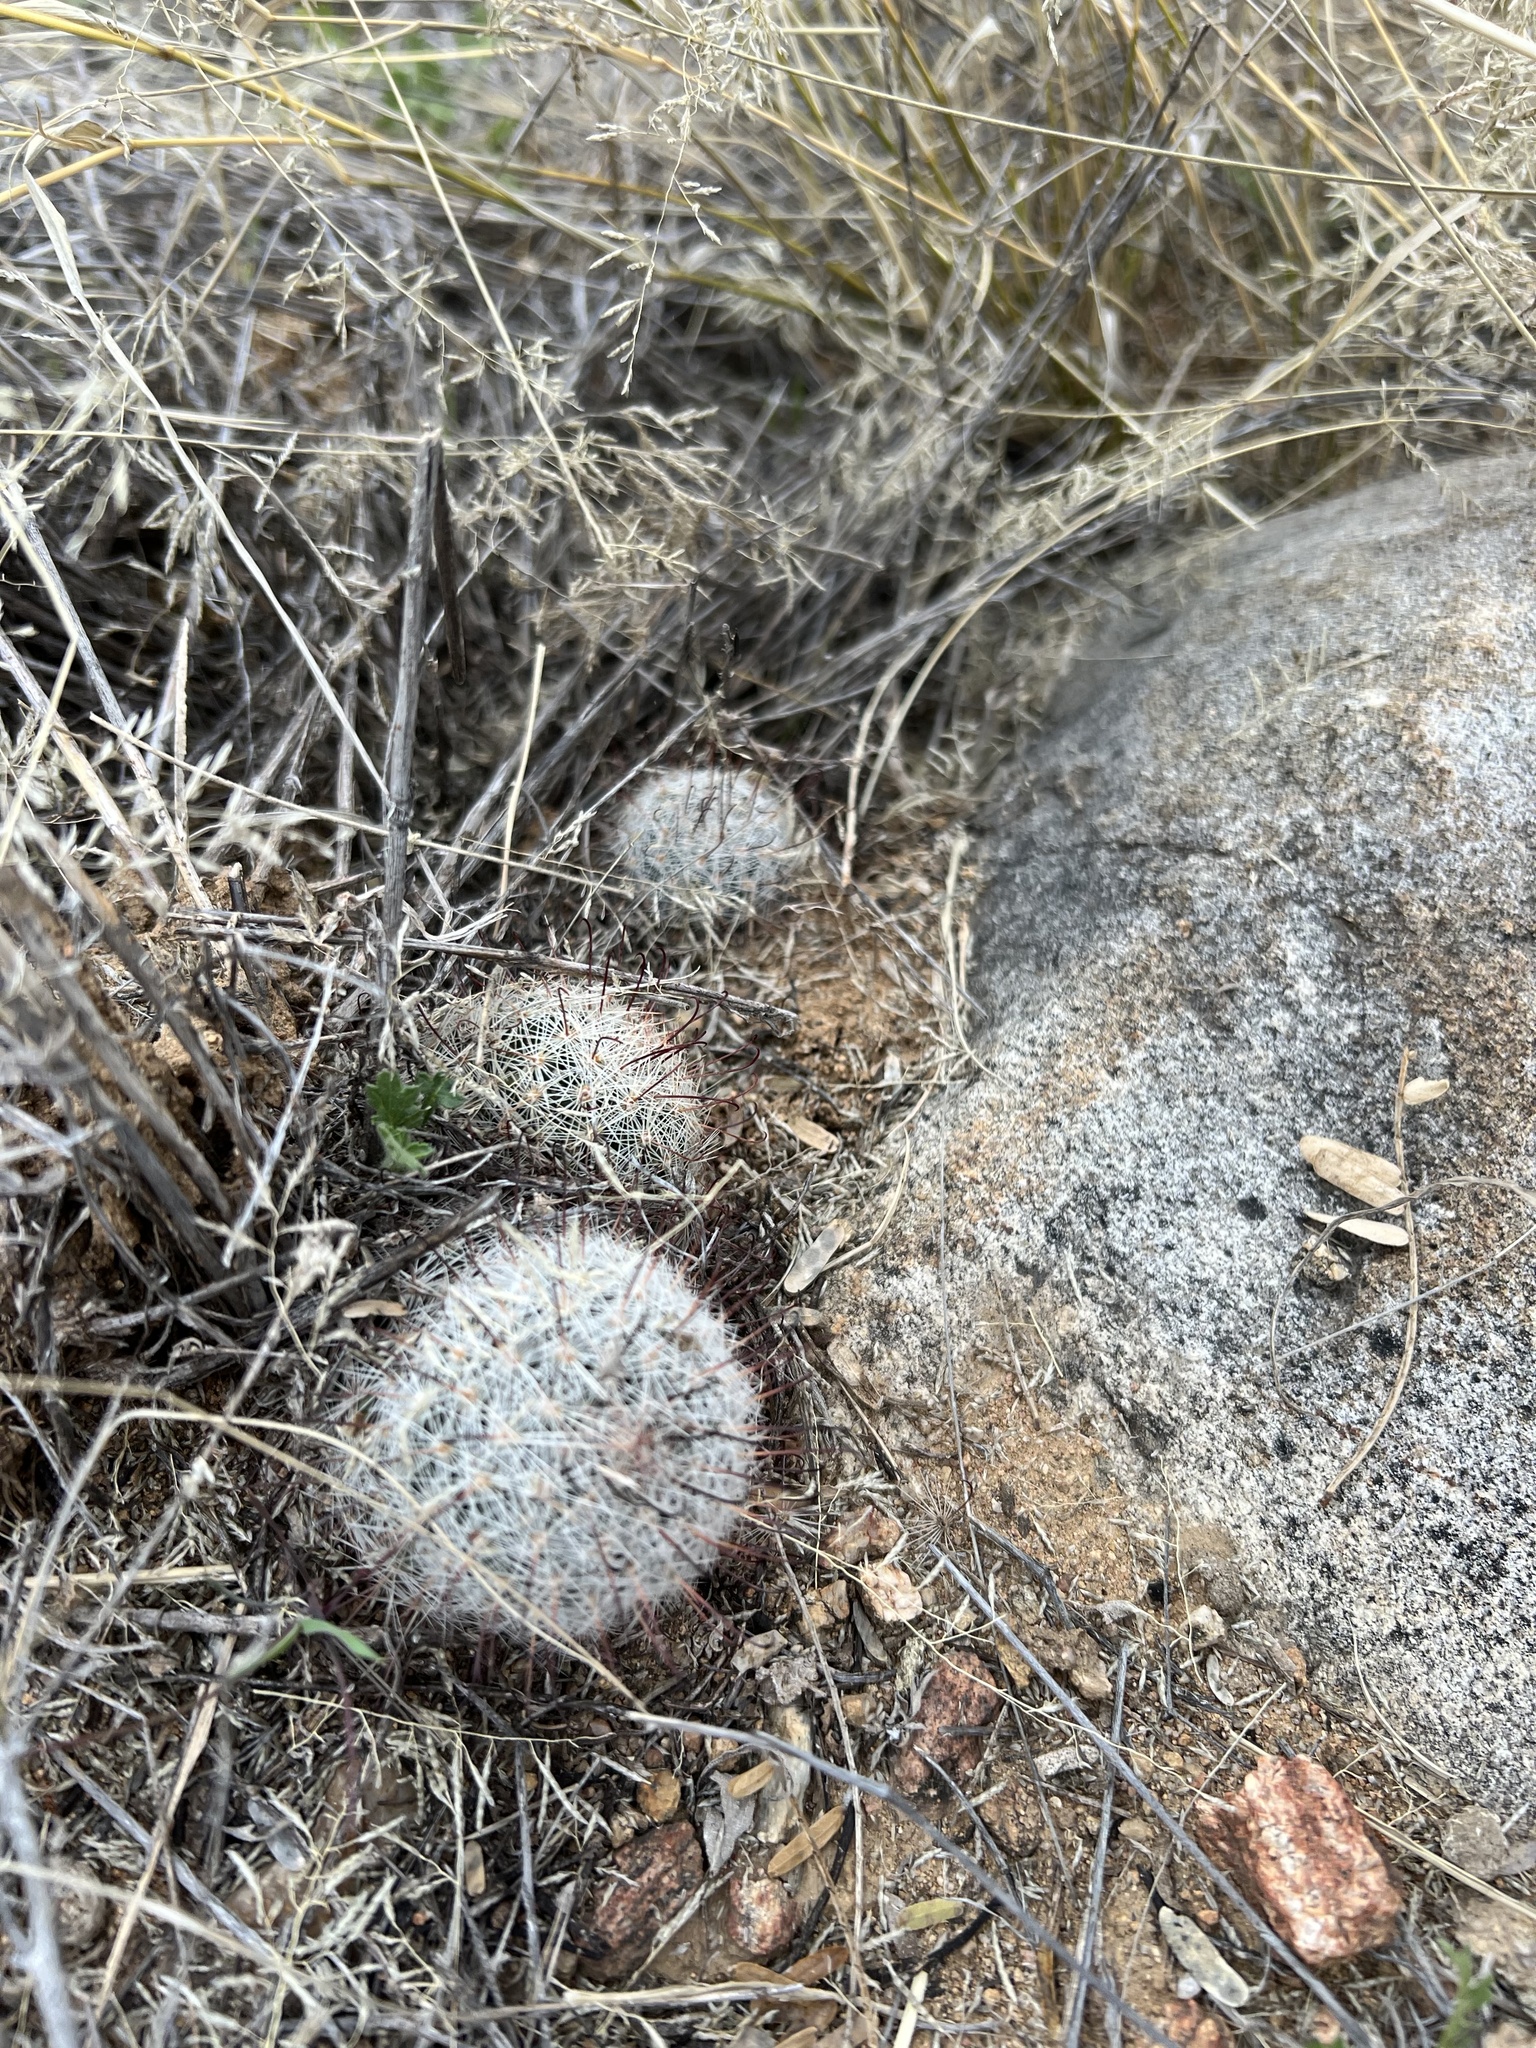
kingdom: Plantae
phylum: Tracheophyta
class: Magnoliopsida
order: Caryophyllales
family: Cactaceae
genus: Cochemiea
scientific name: Cochemiea grahamii
